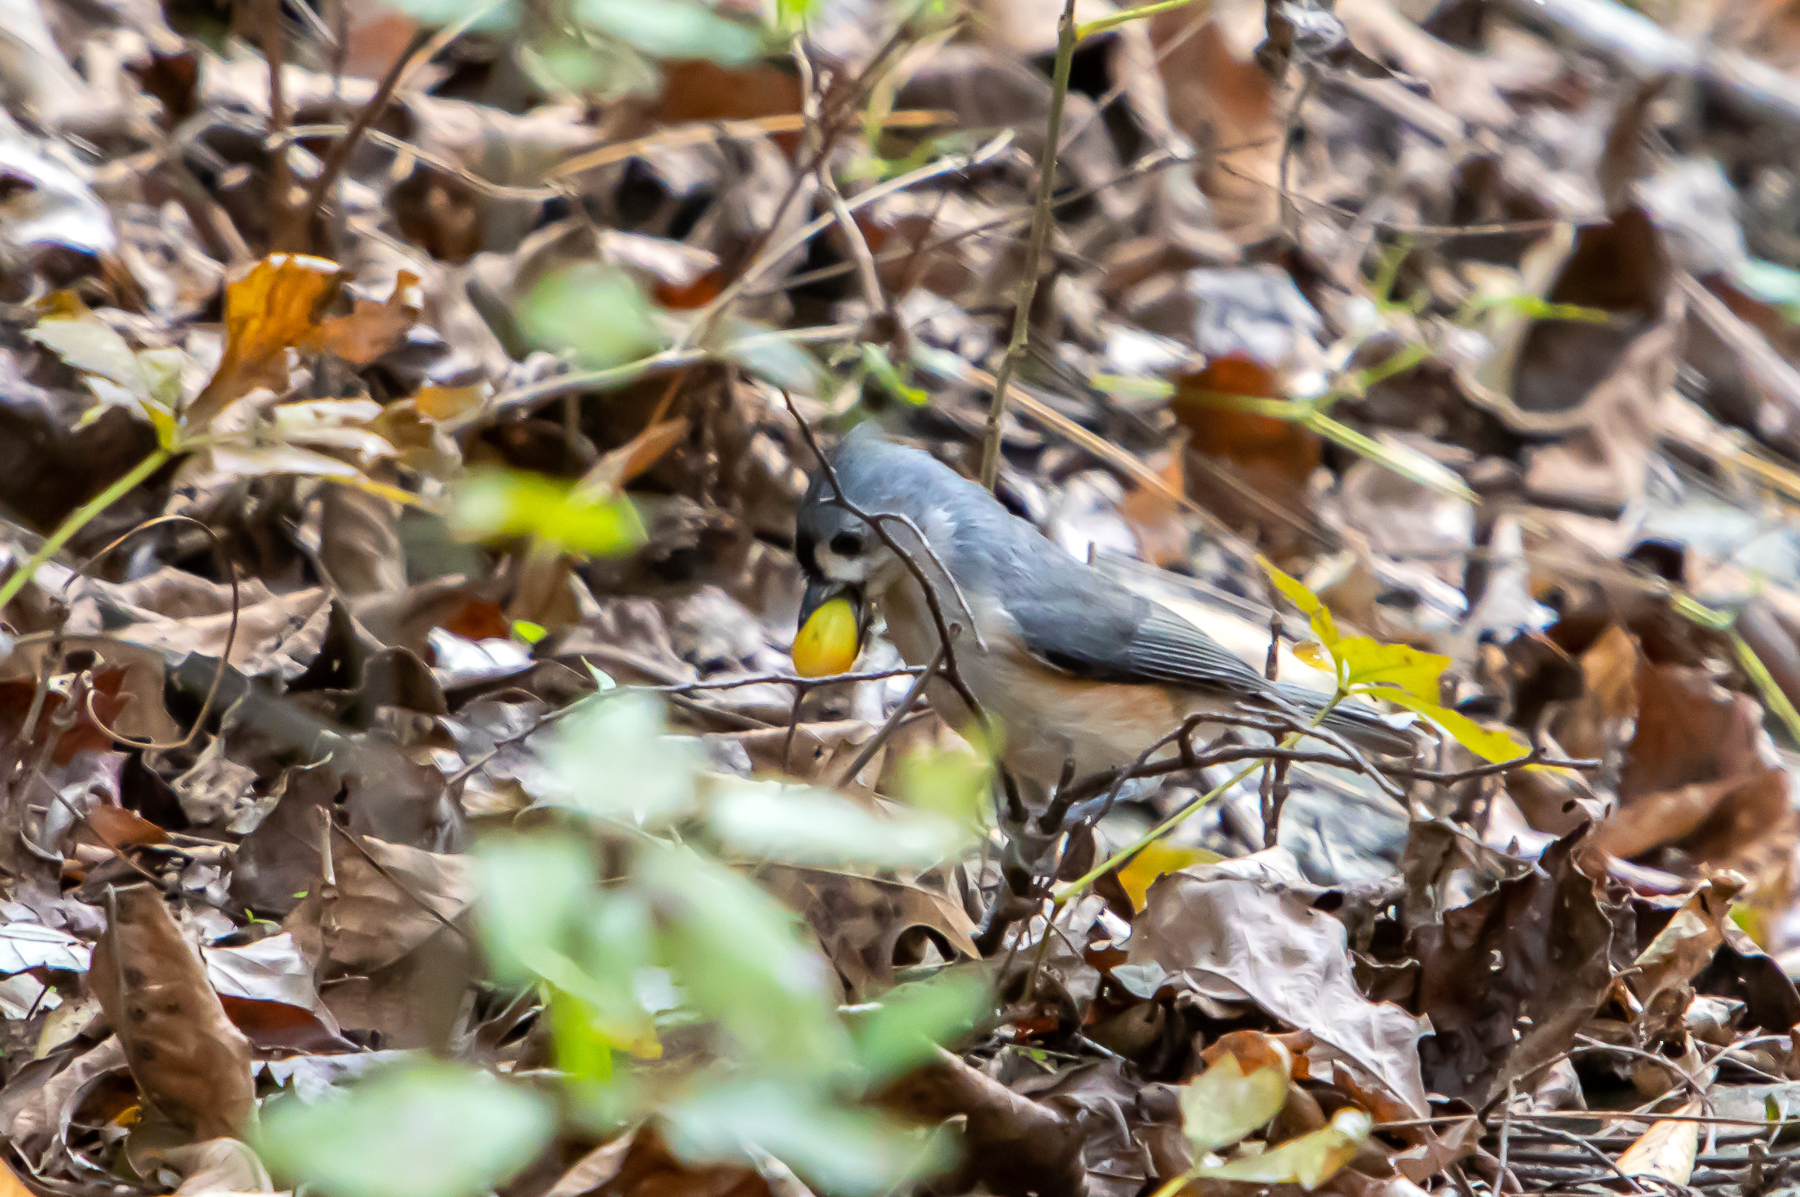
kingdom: Animalia
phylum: Chordata
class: Aves
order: Passeriformes
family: Paridae
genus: Baeolophus
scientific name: Baeolophus bicolor
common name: Tufted titmouse
